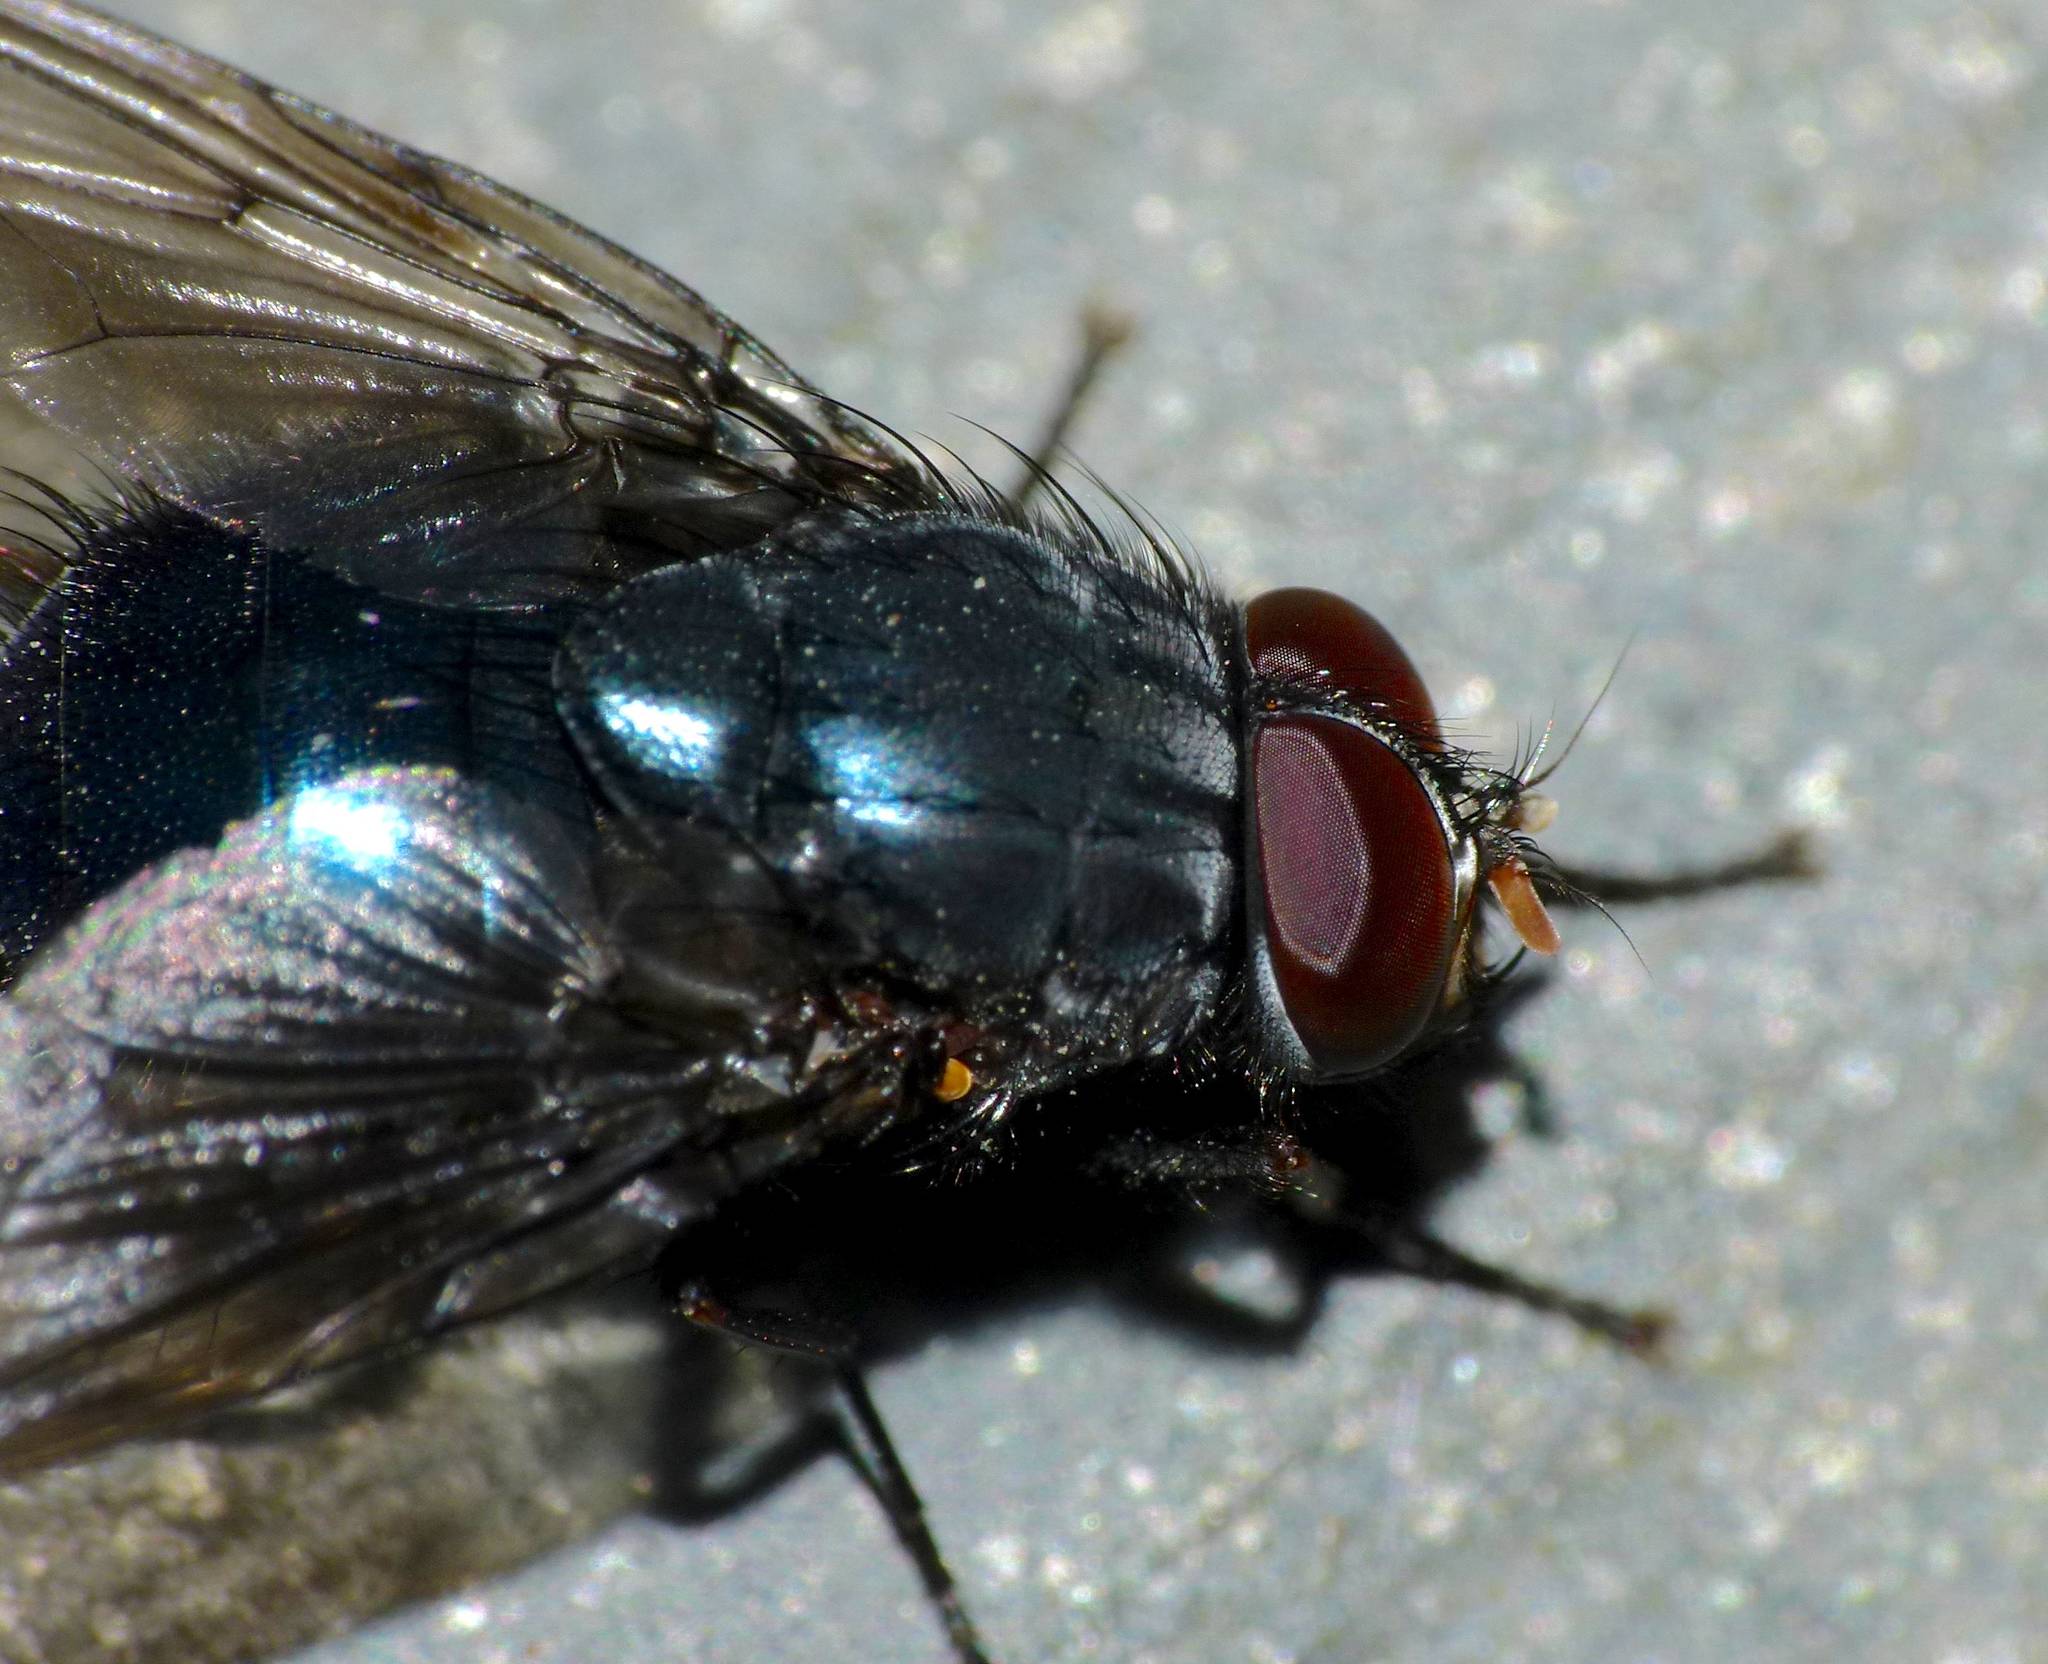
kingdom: Animalia
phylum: Arthropoda
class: Insecta
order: Diptera
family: Muscidae
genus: Calliphoroides
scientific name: Calliphoroides antennatis
